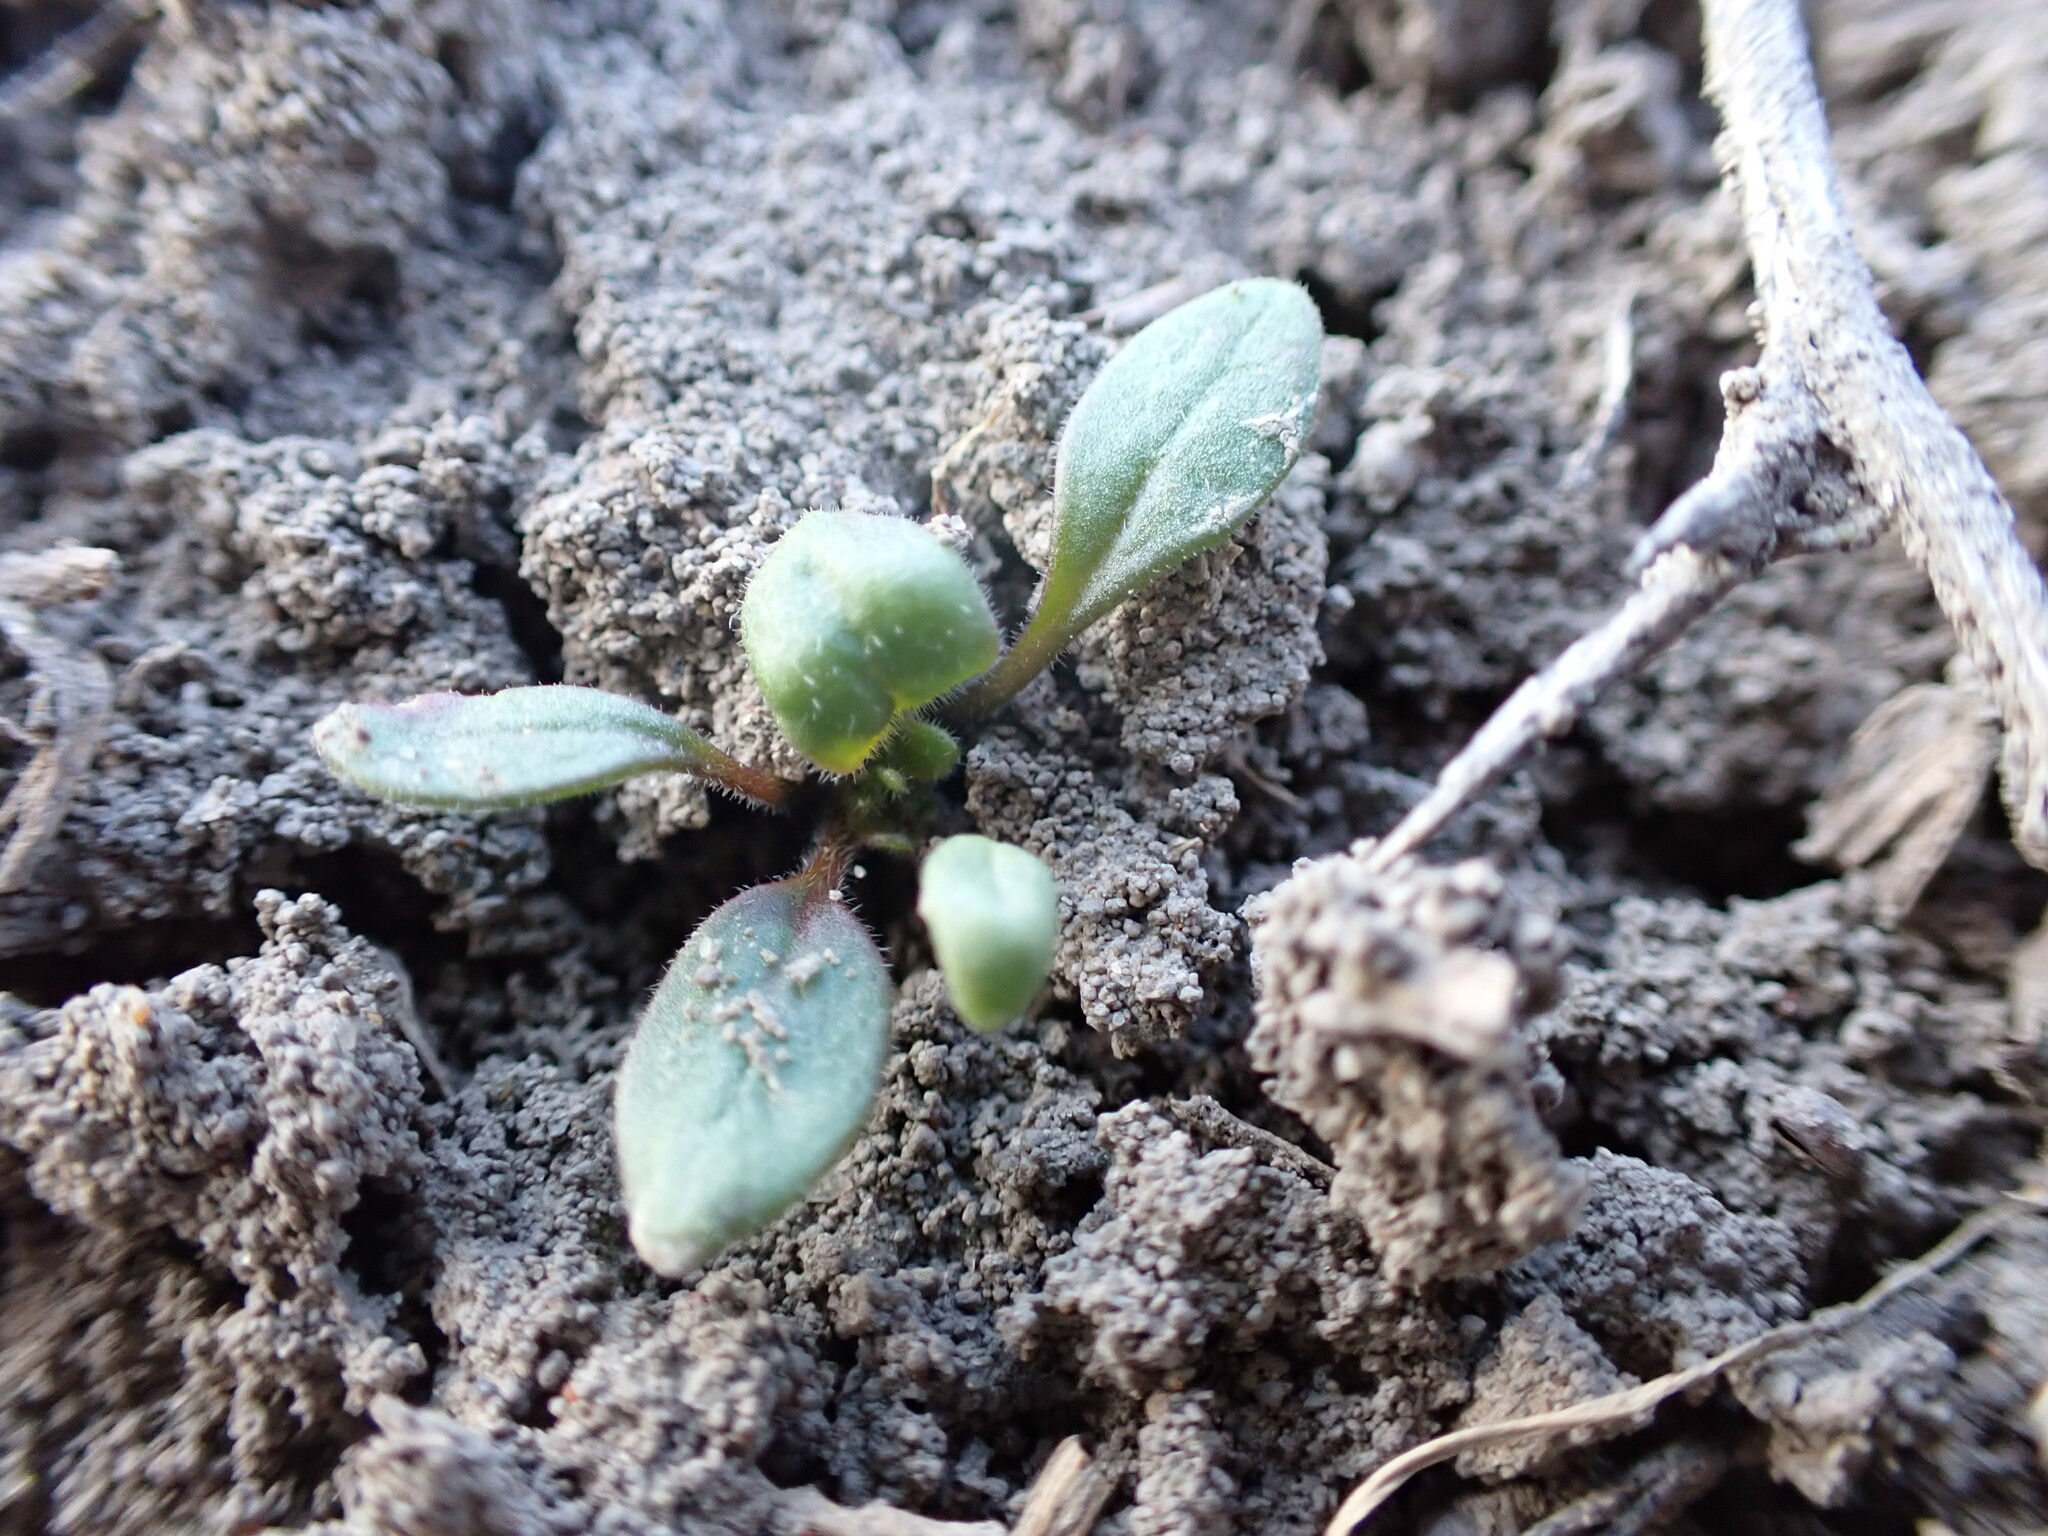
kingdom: Plantae
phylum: Tracheophyta
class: Magnoliopsida
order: Boraginales
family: Hydrophyllaceae
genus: Phacelia
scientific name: Phacelia scopulina
